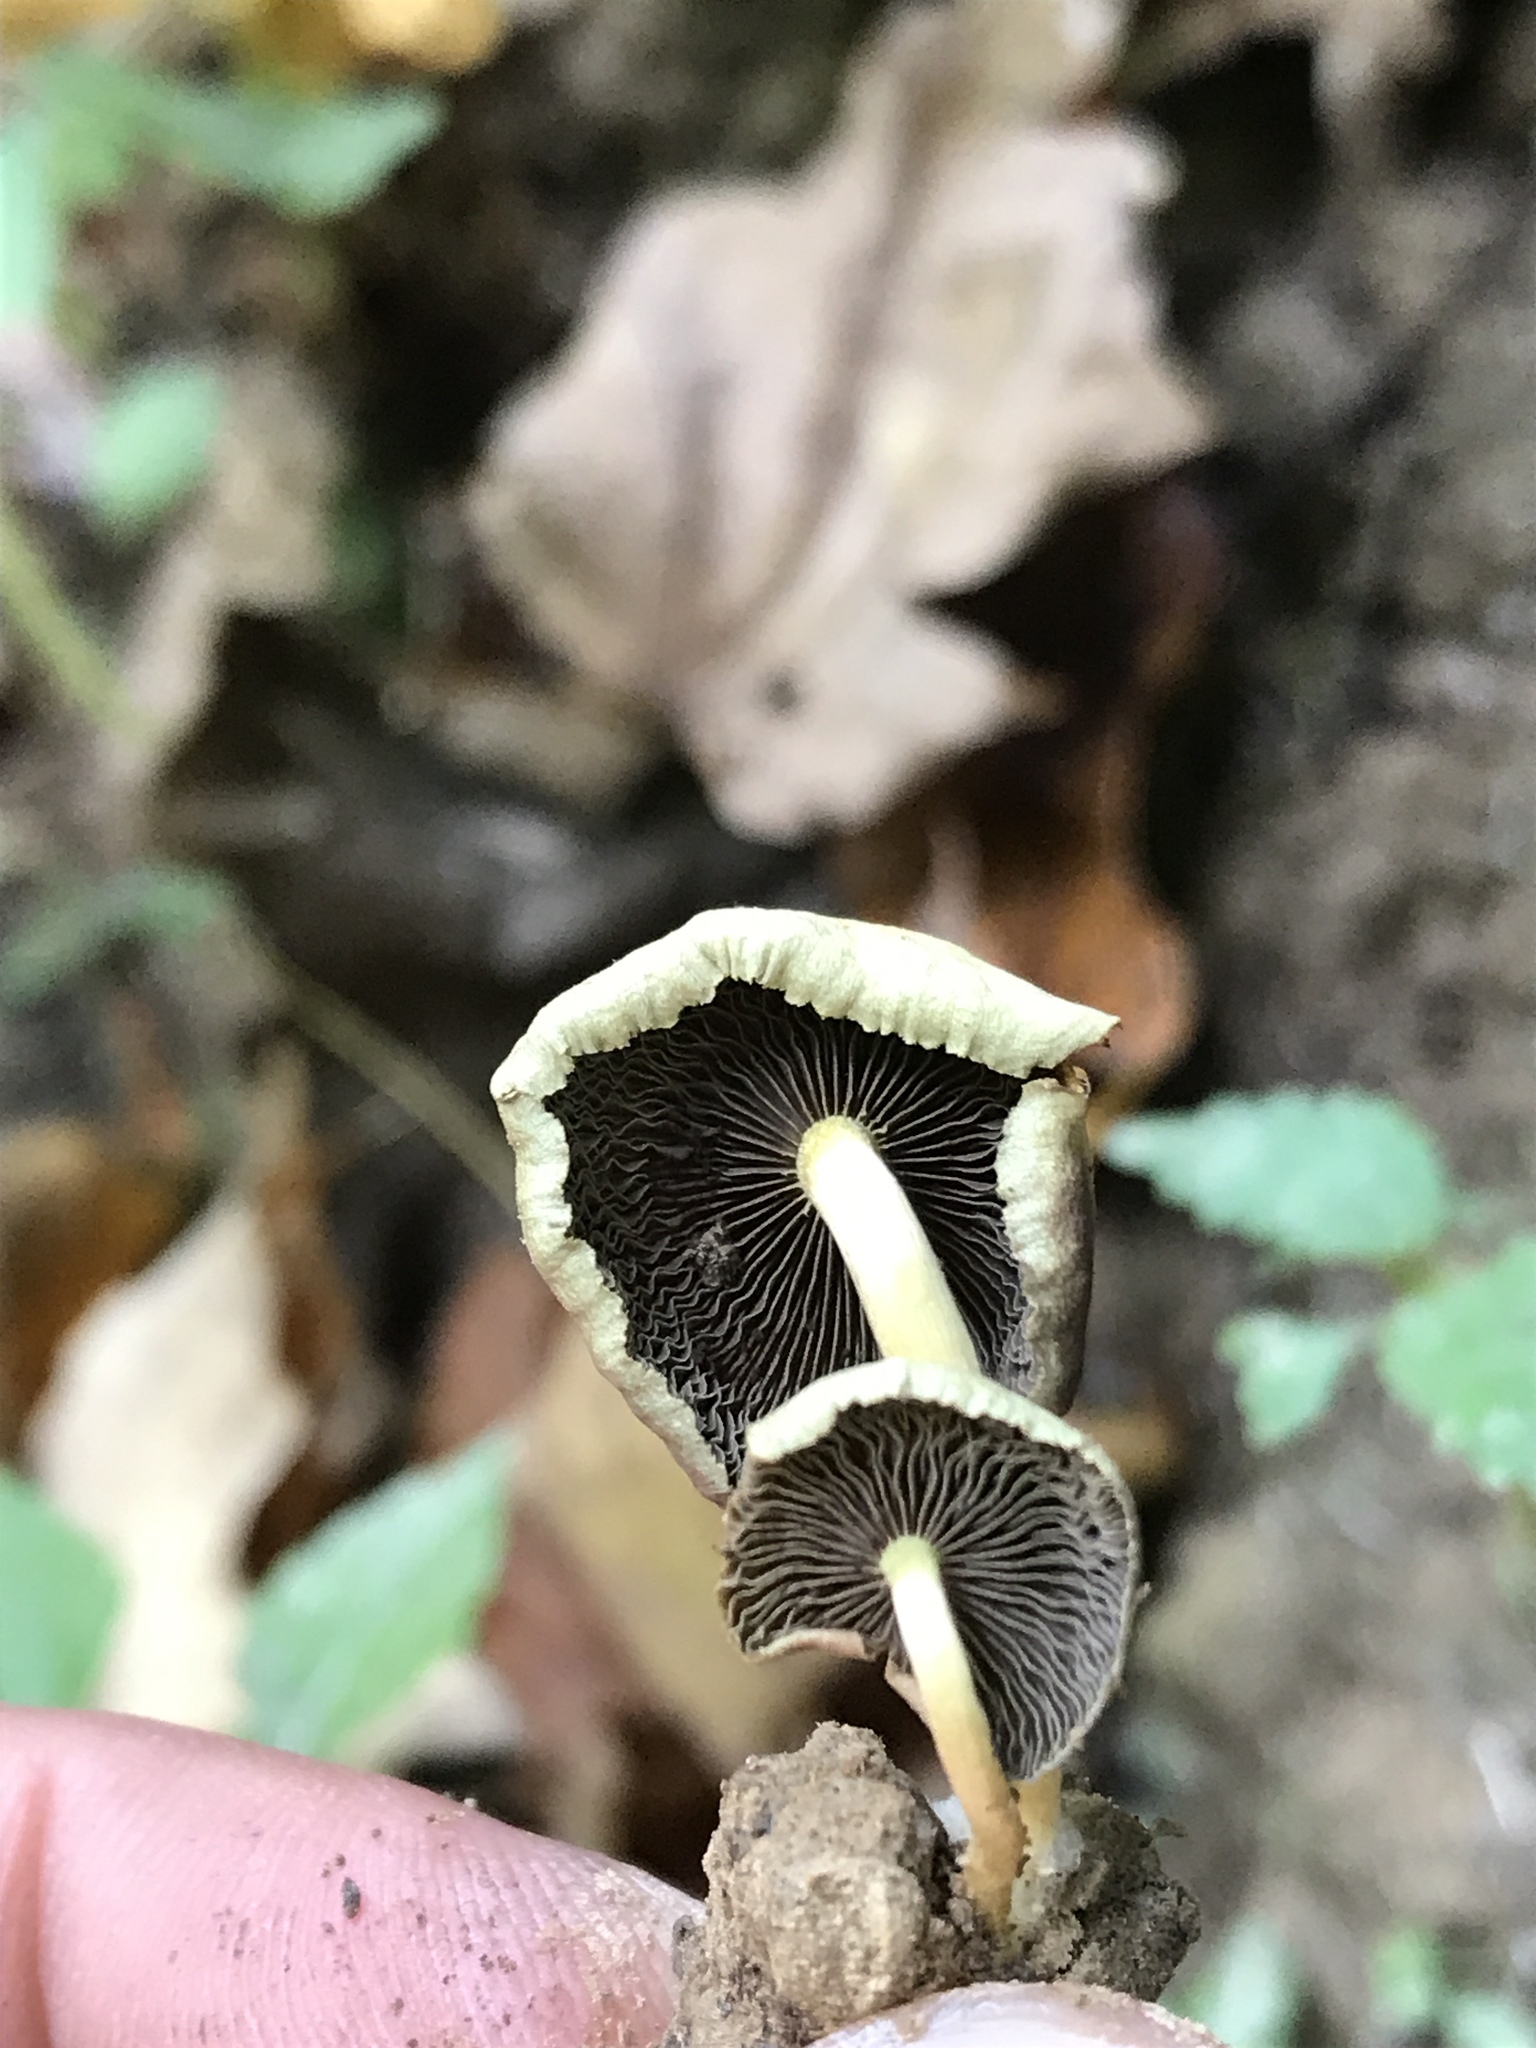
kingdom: Fungi
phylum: Basidiomycota
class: Agaricomycetes
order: Agaricales
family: Strophariaceae
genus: Hypholoma
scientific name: Hypholoma fasciculare
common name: Sulphur tuft
